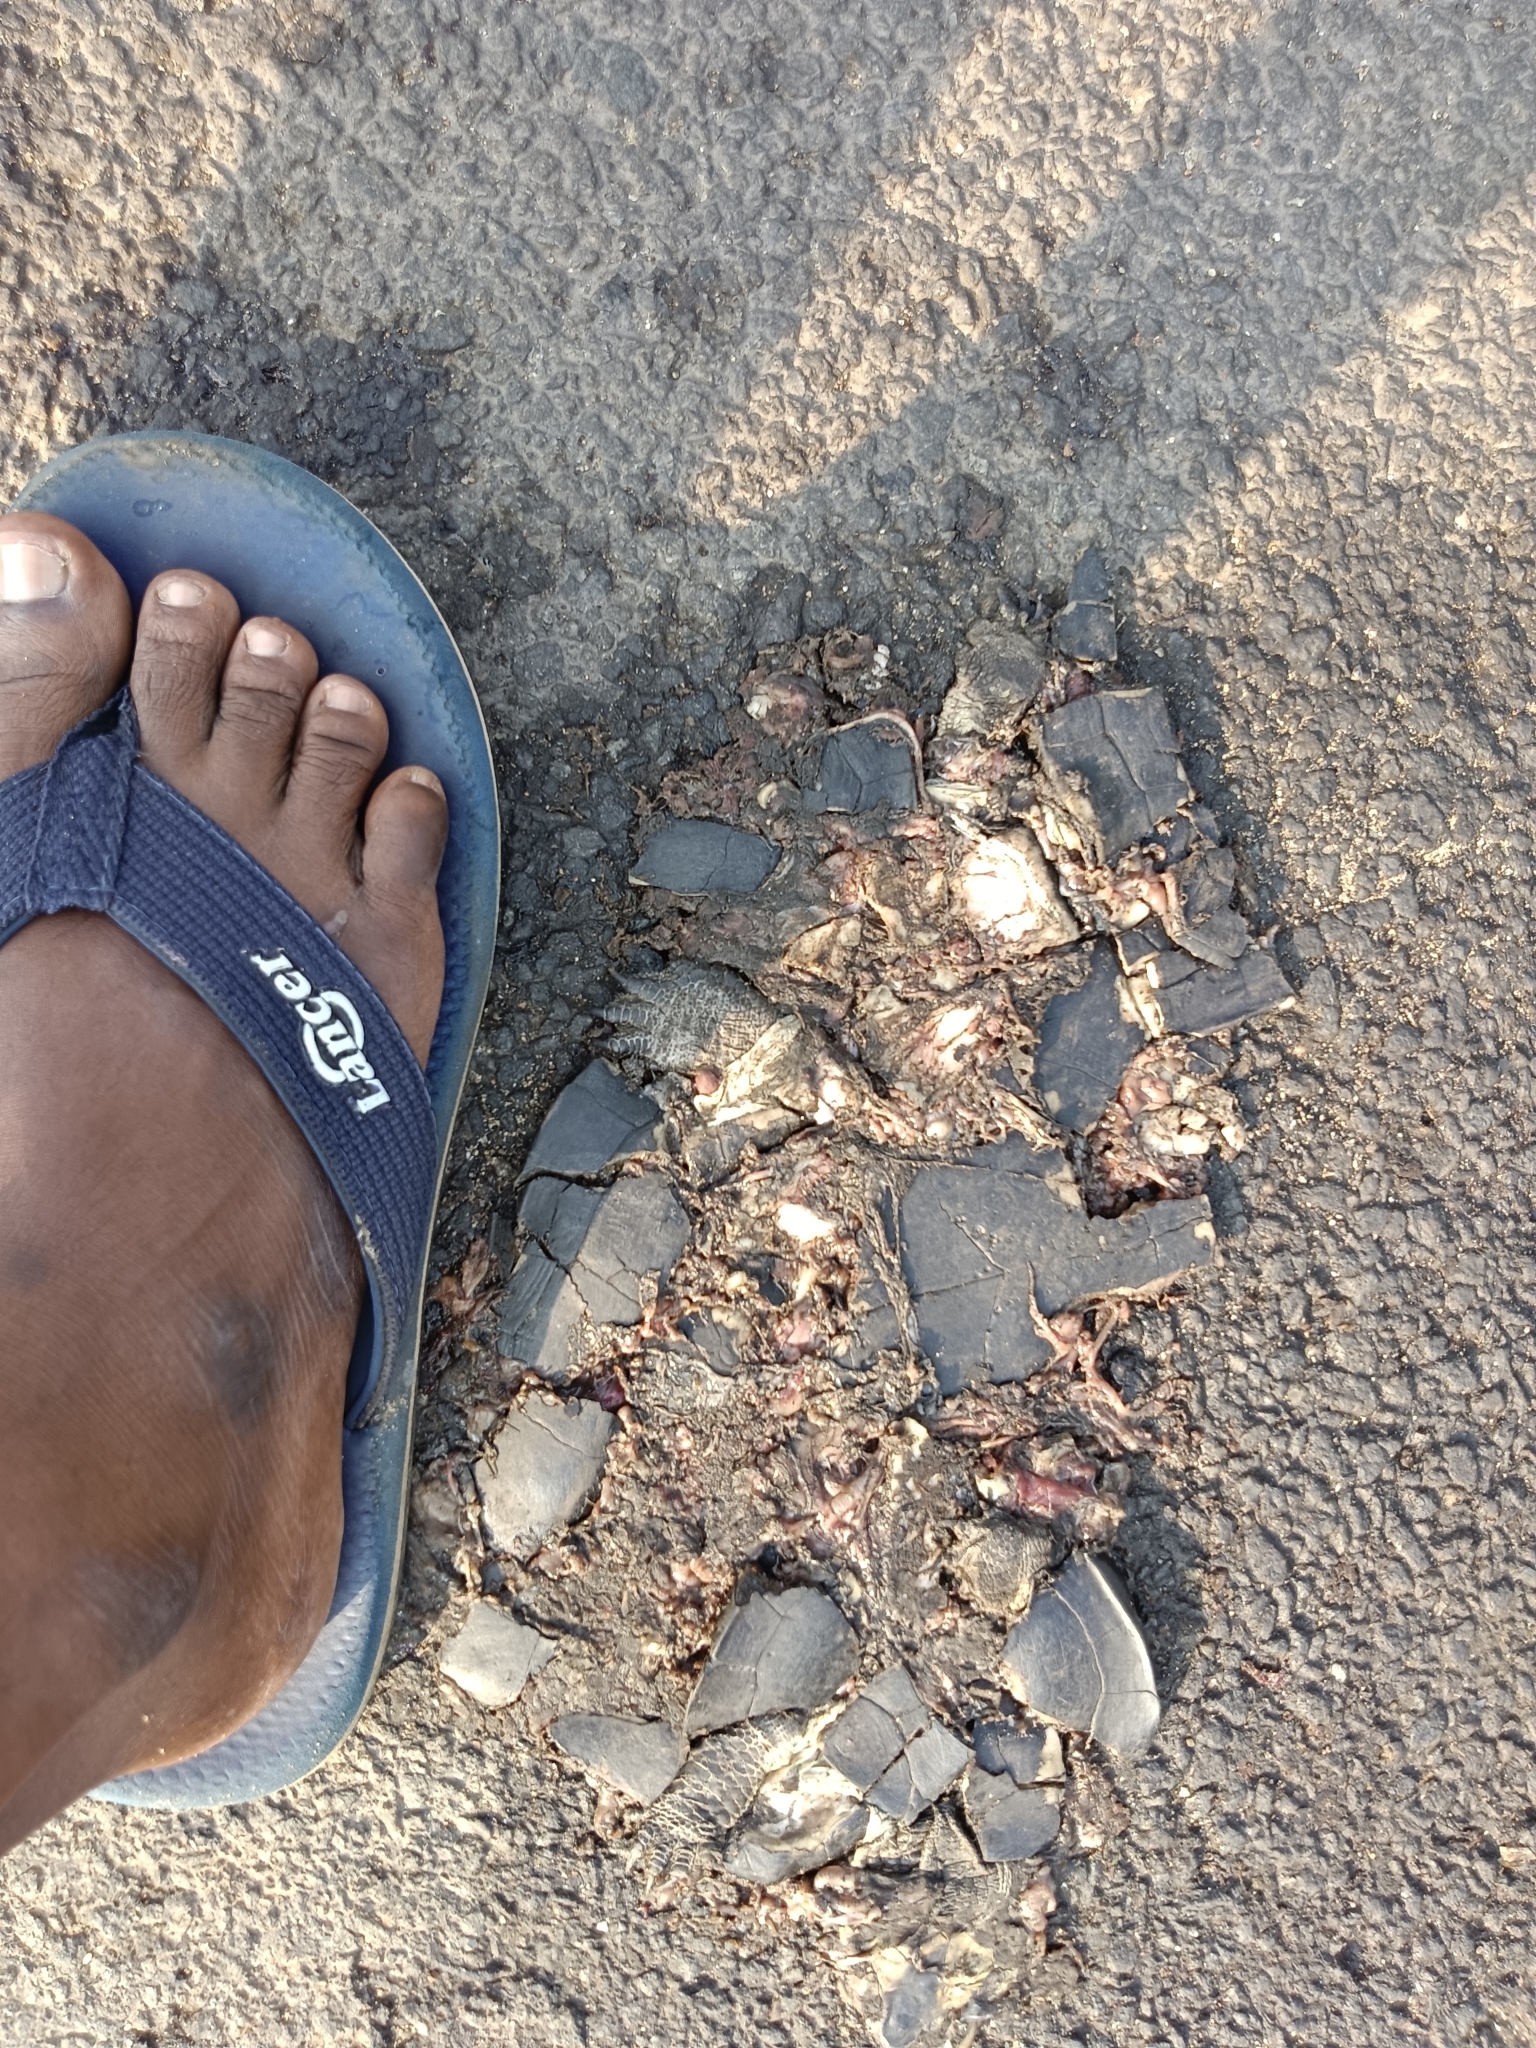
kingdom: Animalia
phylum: Chordata
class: Testudines
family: Geoemydidae
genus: Melanochelys
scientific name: Melanochelys trijuga
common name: Indian black turtle
